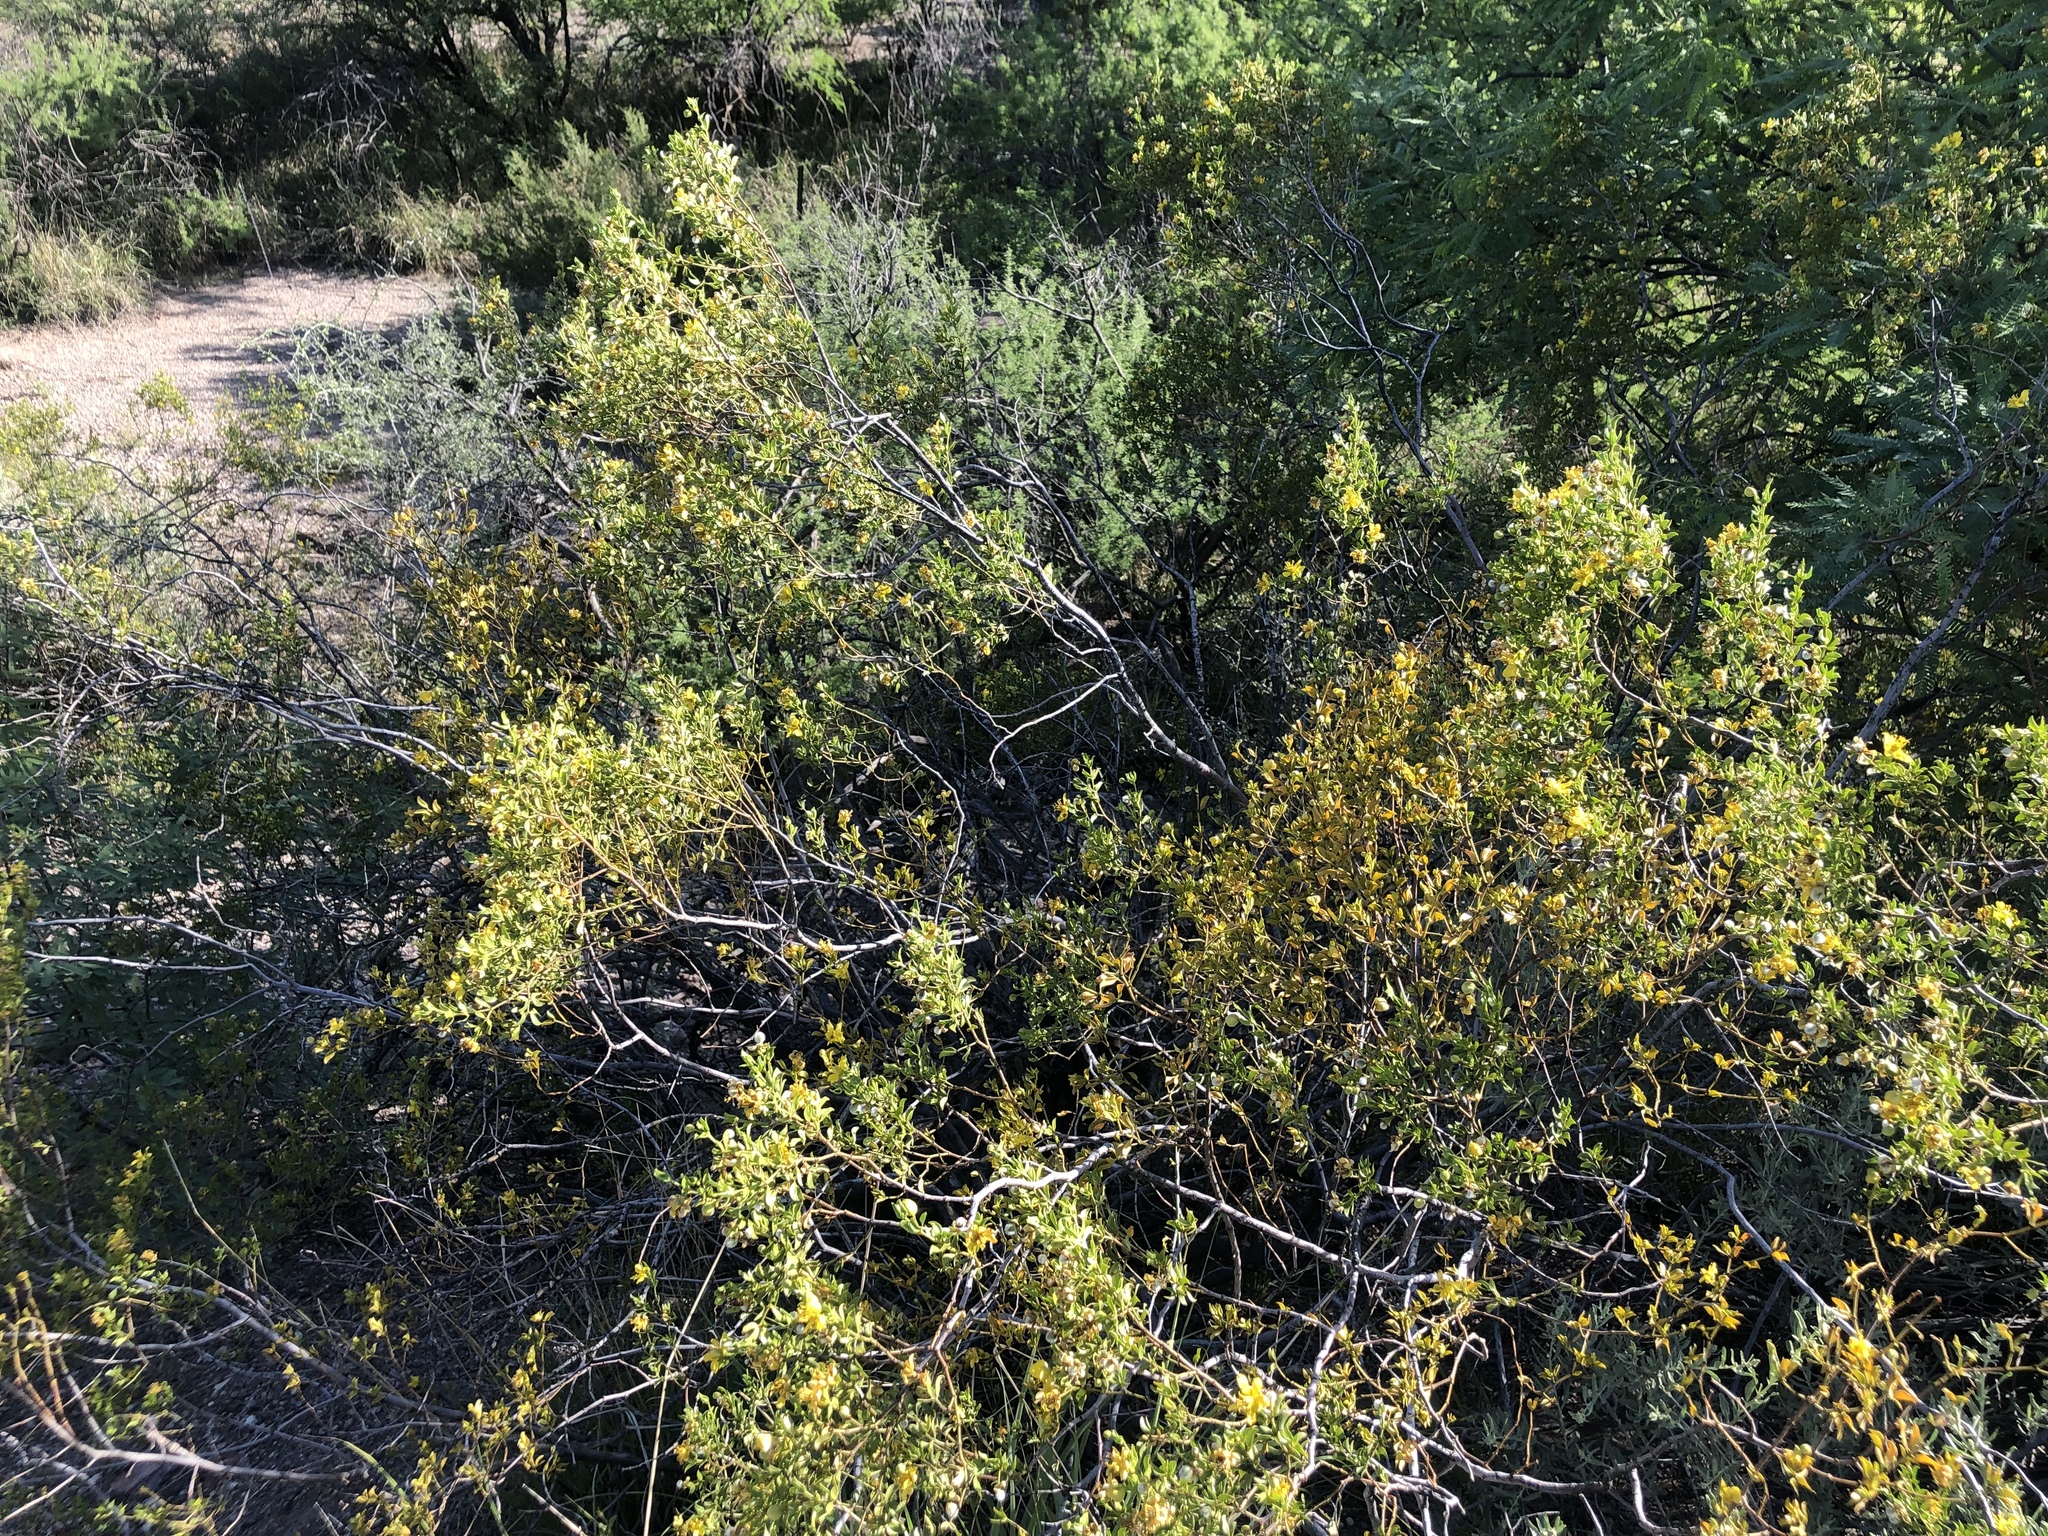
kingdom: Plantae
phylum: Tracheophyta
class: Magnoliopsida
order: Zygophyllales
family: Zygophyllaceae
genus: Larrea
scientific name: Larrea tridentata
